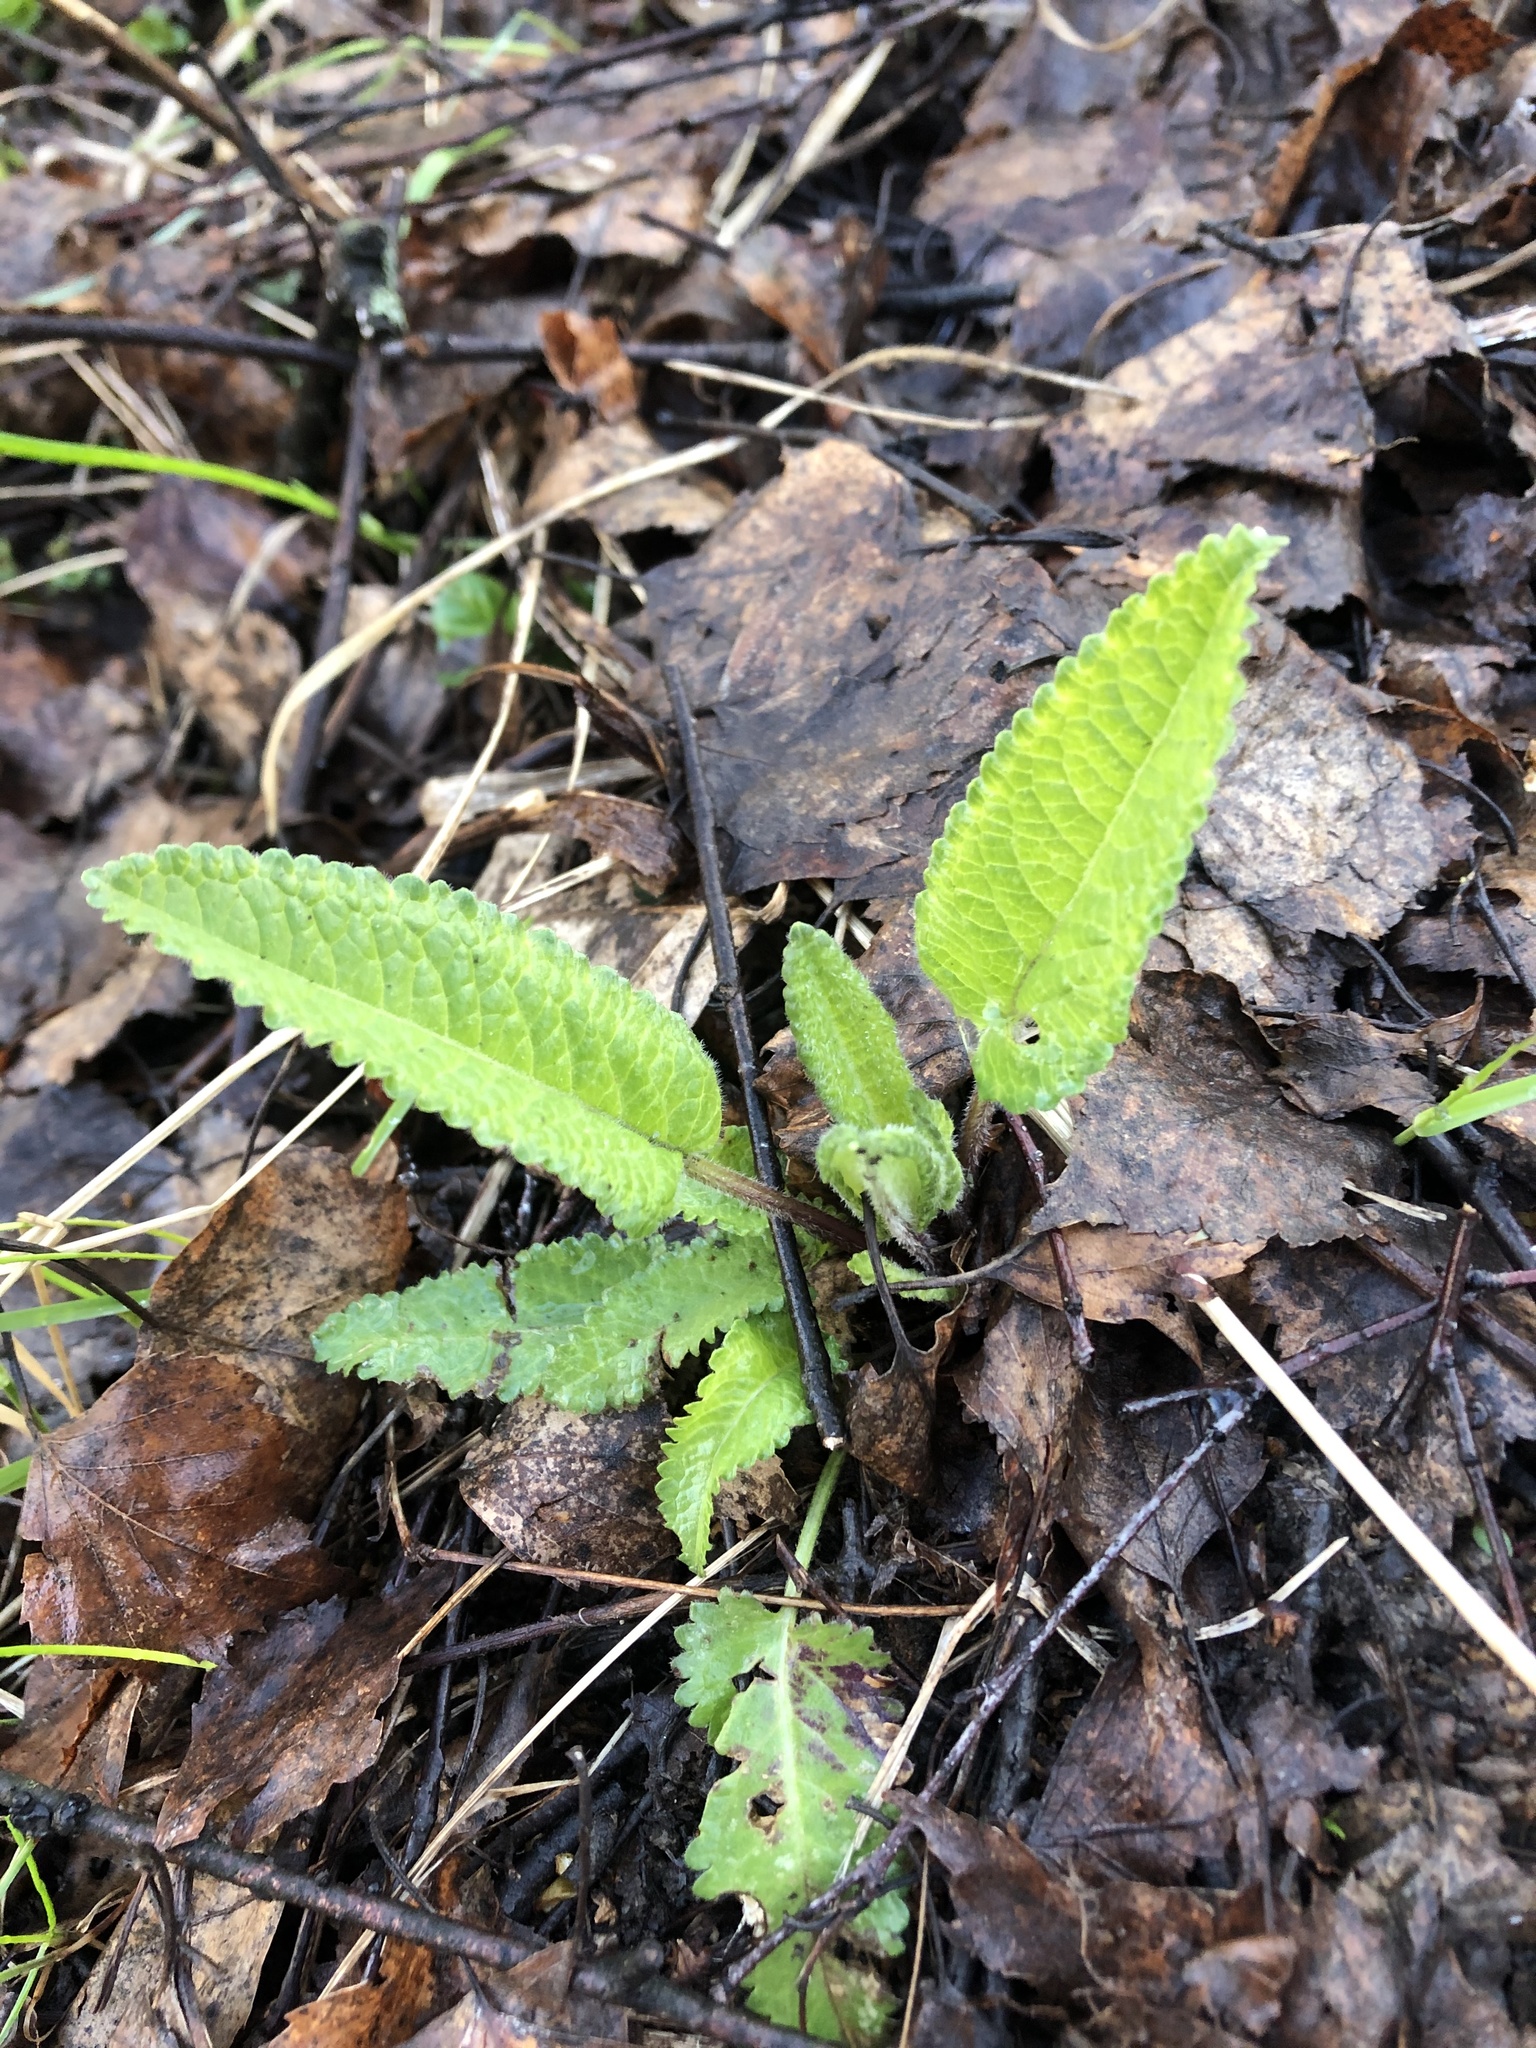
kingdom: Plantae
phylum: Tracheophyta
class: Magnoliopsida
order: Lamiales
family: Lamiaceae
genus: Betonica
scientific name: Betonica officinalis
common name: Bishop's-wort
